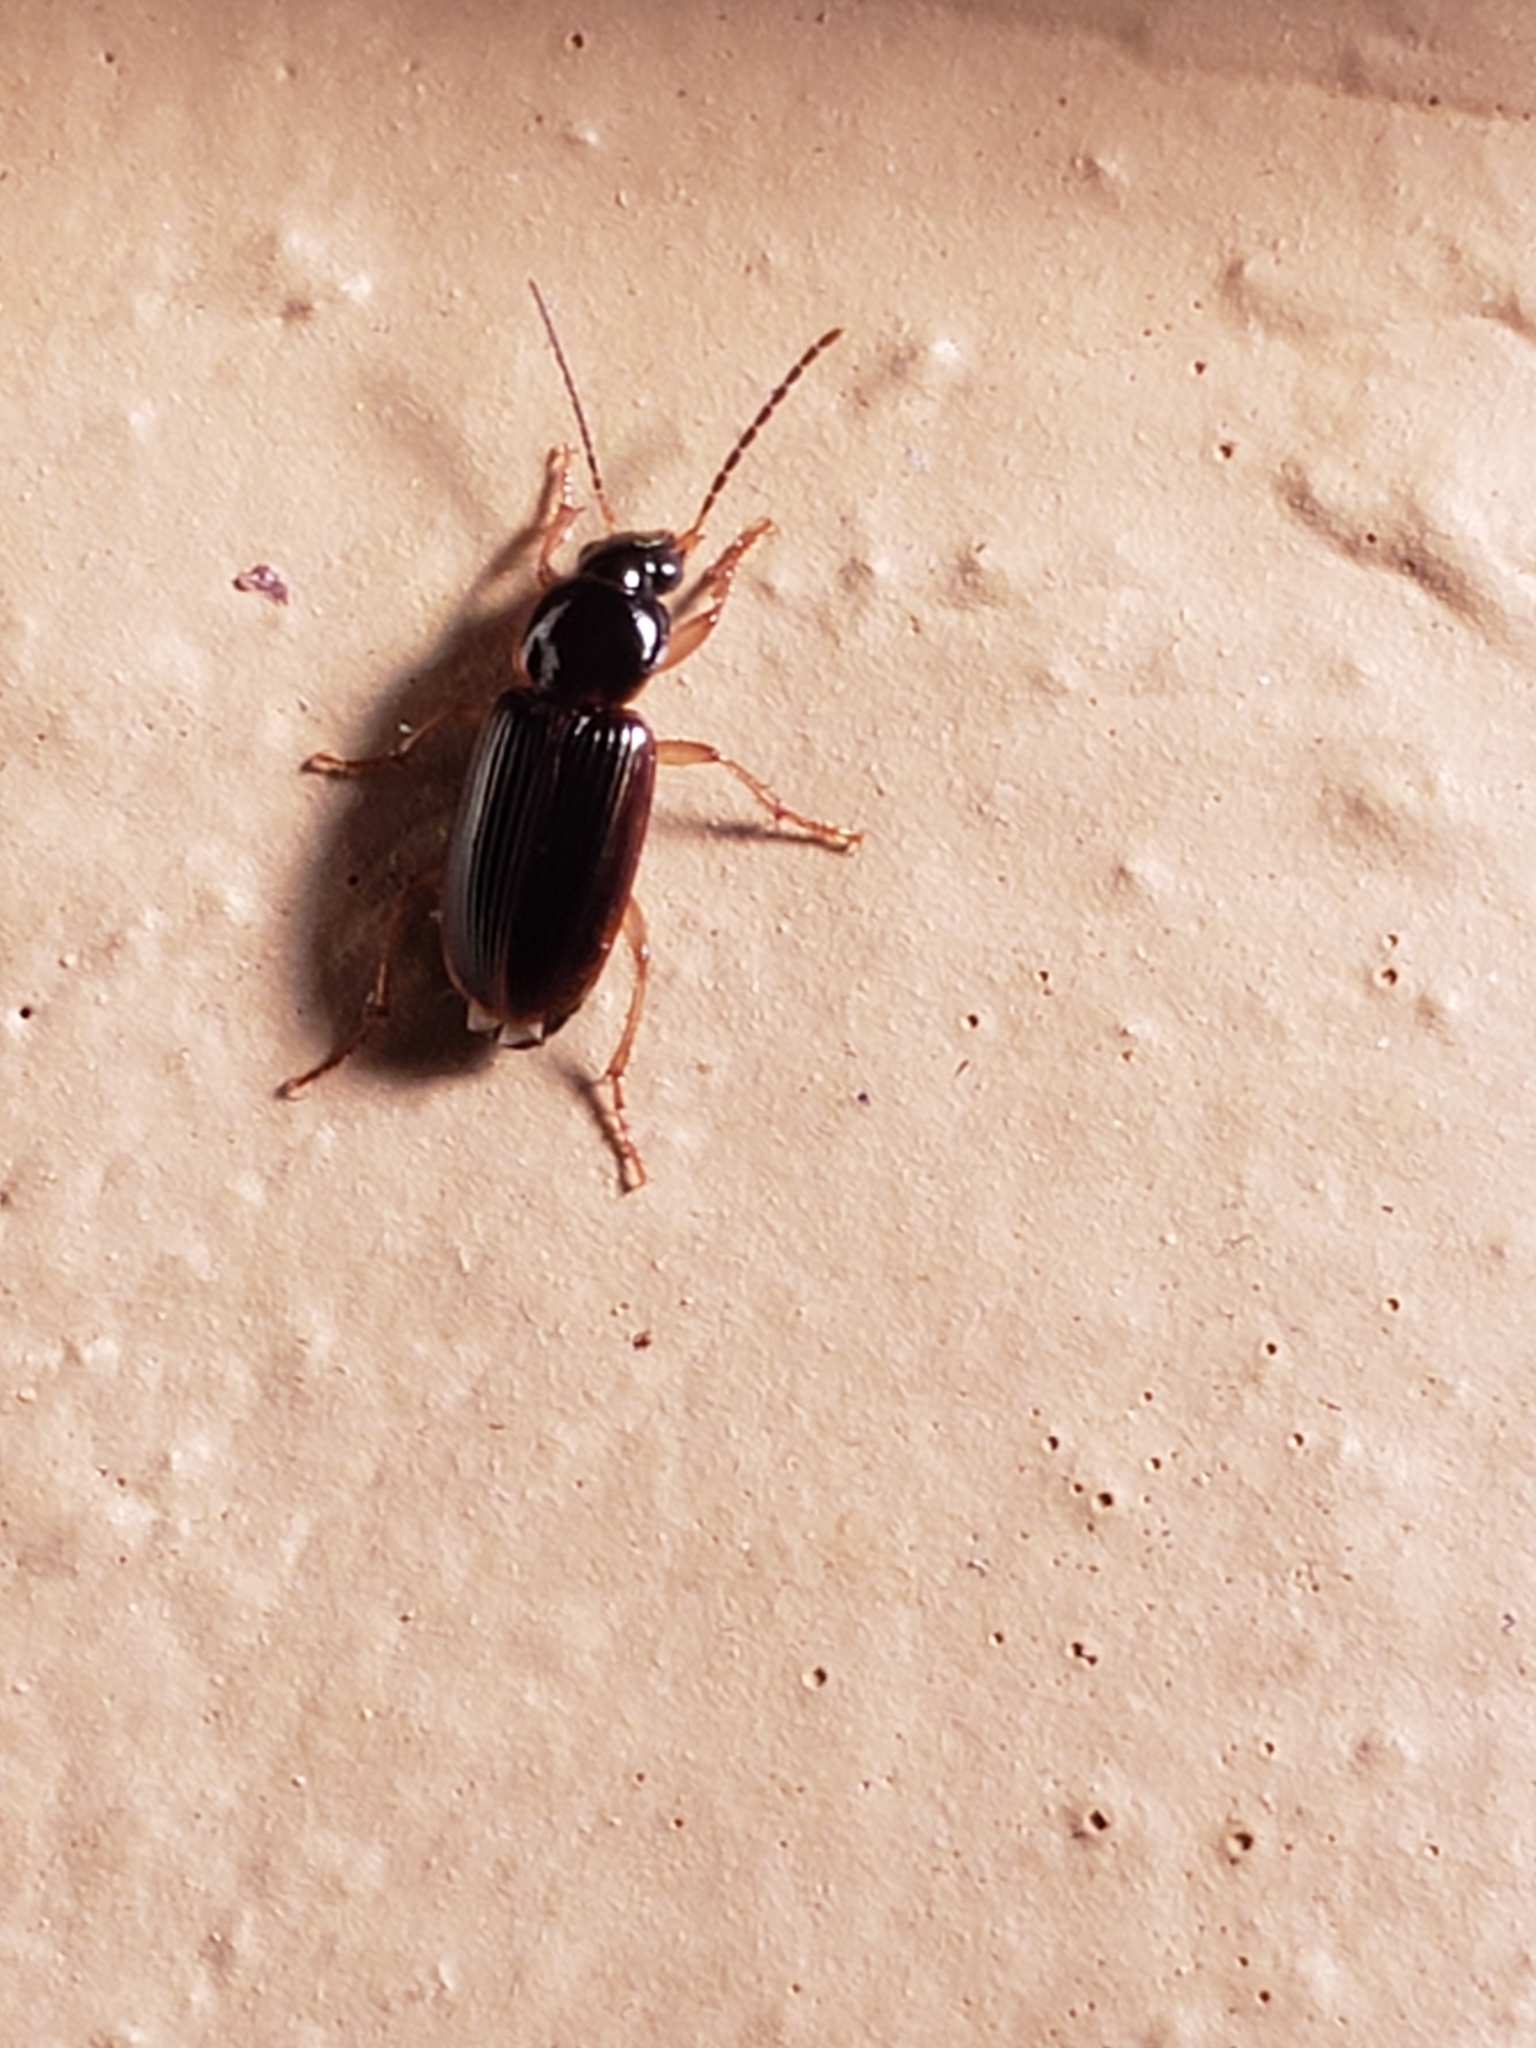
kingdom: Animalia
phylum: Arthropoda
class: Insecta
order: Coleoptera
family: Carabidae
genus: Stenolophus
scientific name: Stenolophus ochropezus
